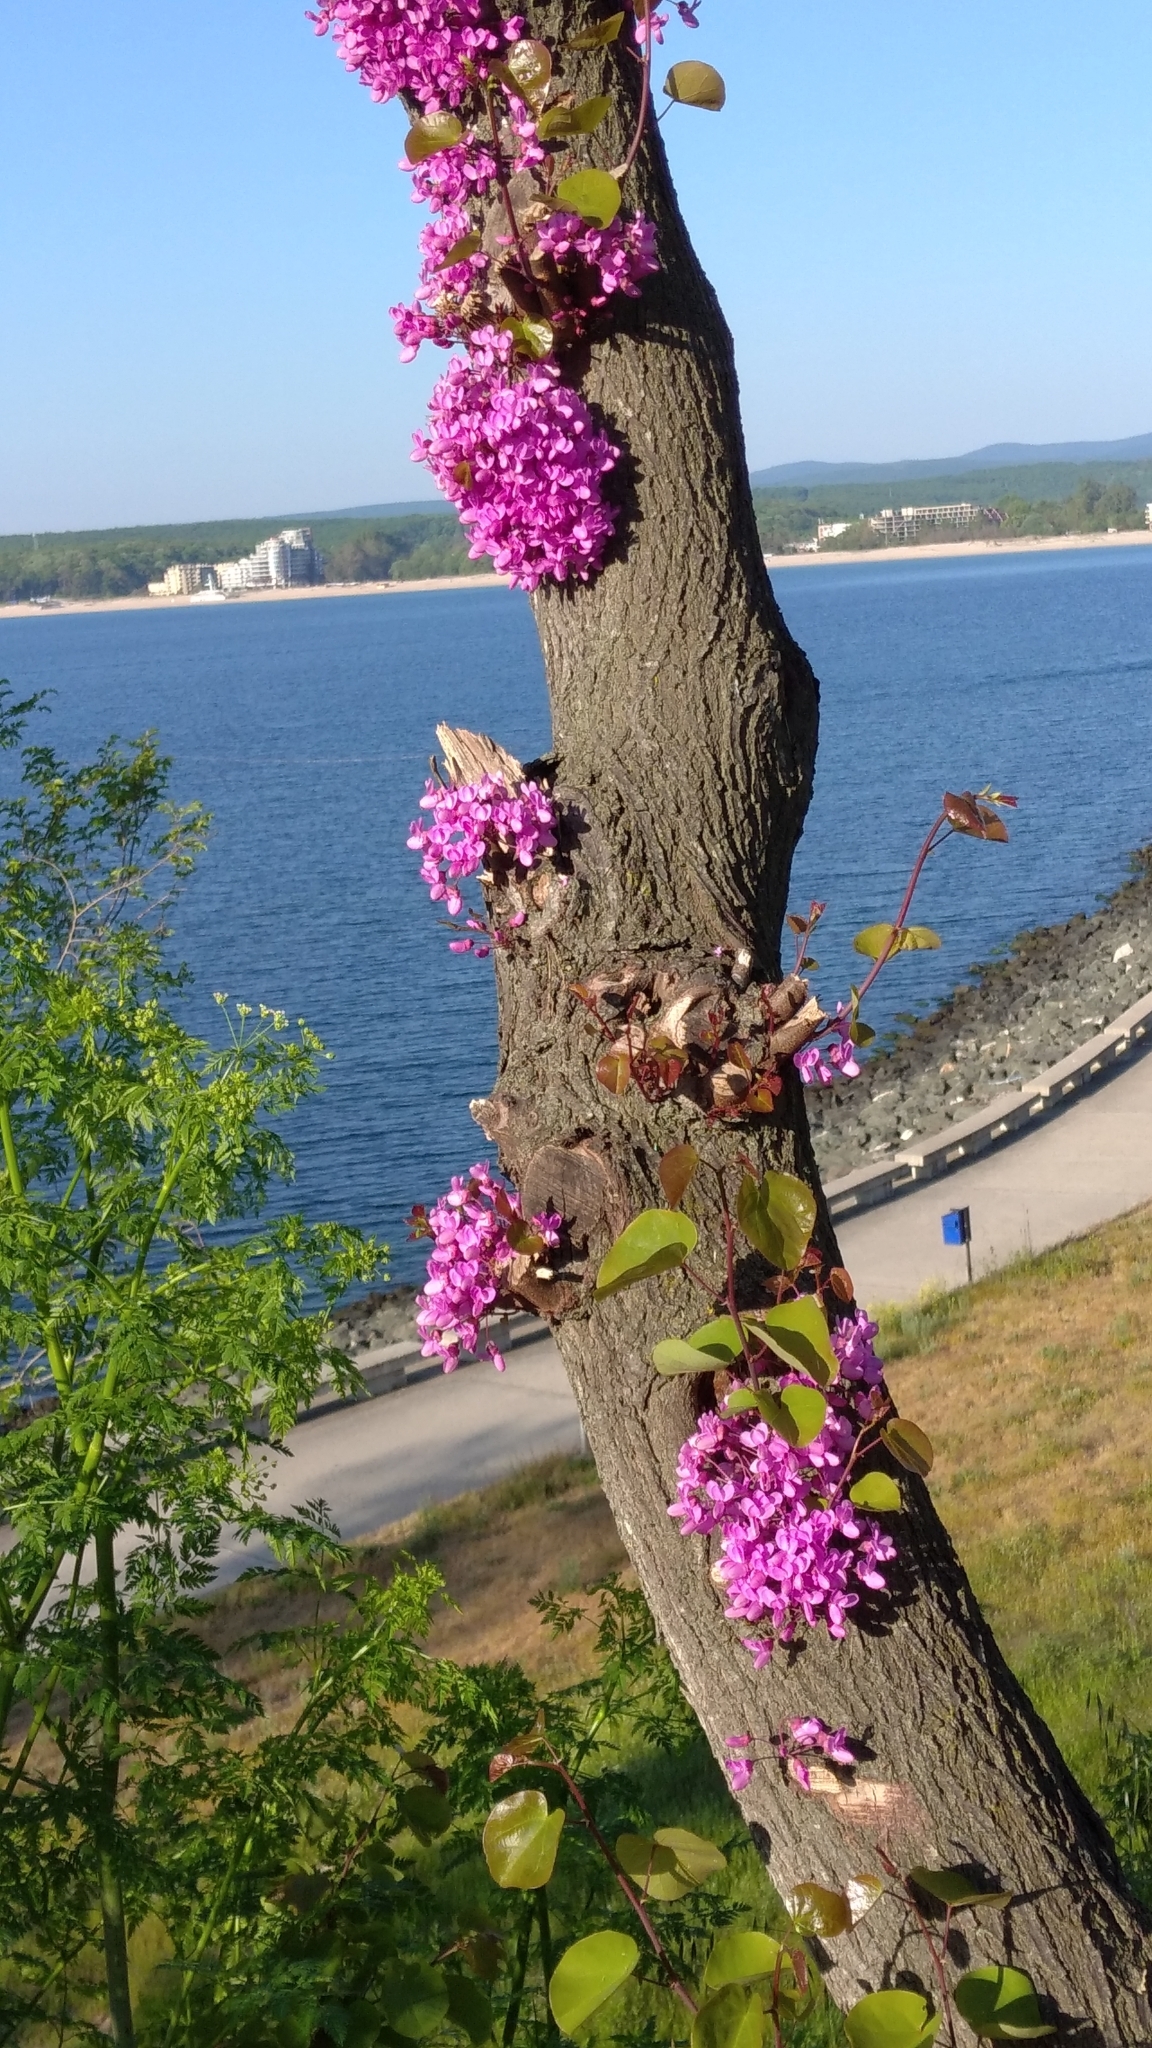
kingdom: Plantae
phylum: Tracheophyta
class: Magnoliopsida
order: Fabales
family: Fabaceae
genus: Cercis
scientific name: Cercis siliquastrum
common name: Judas tree
